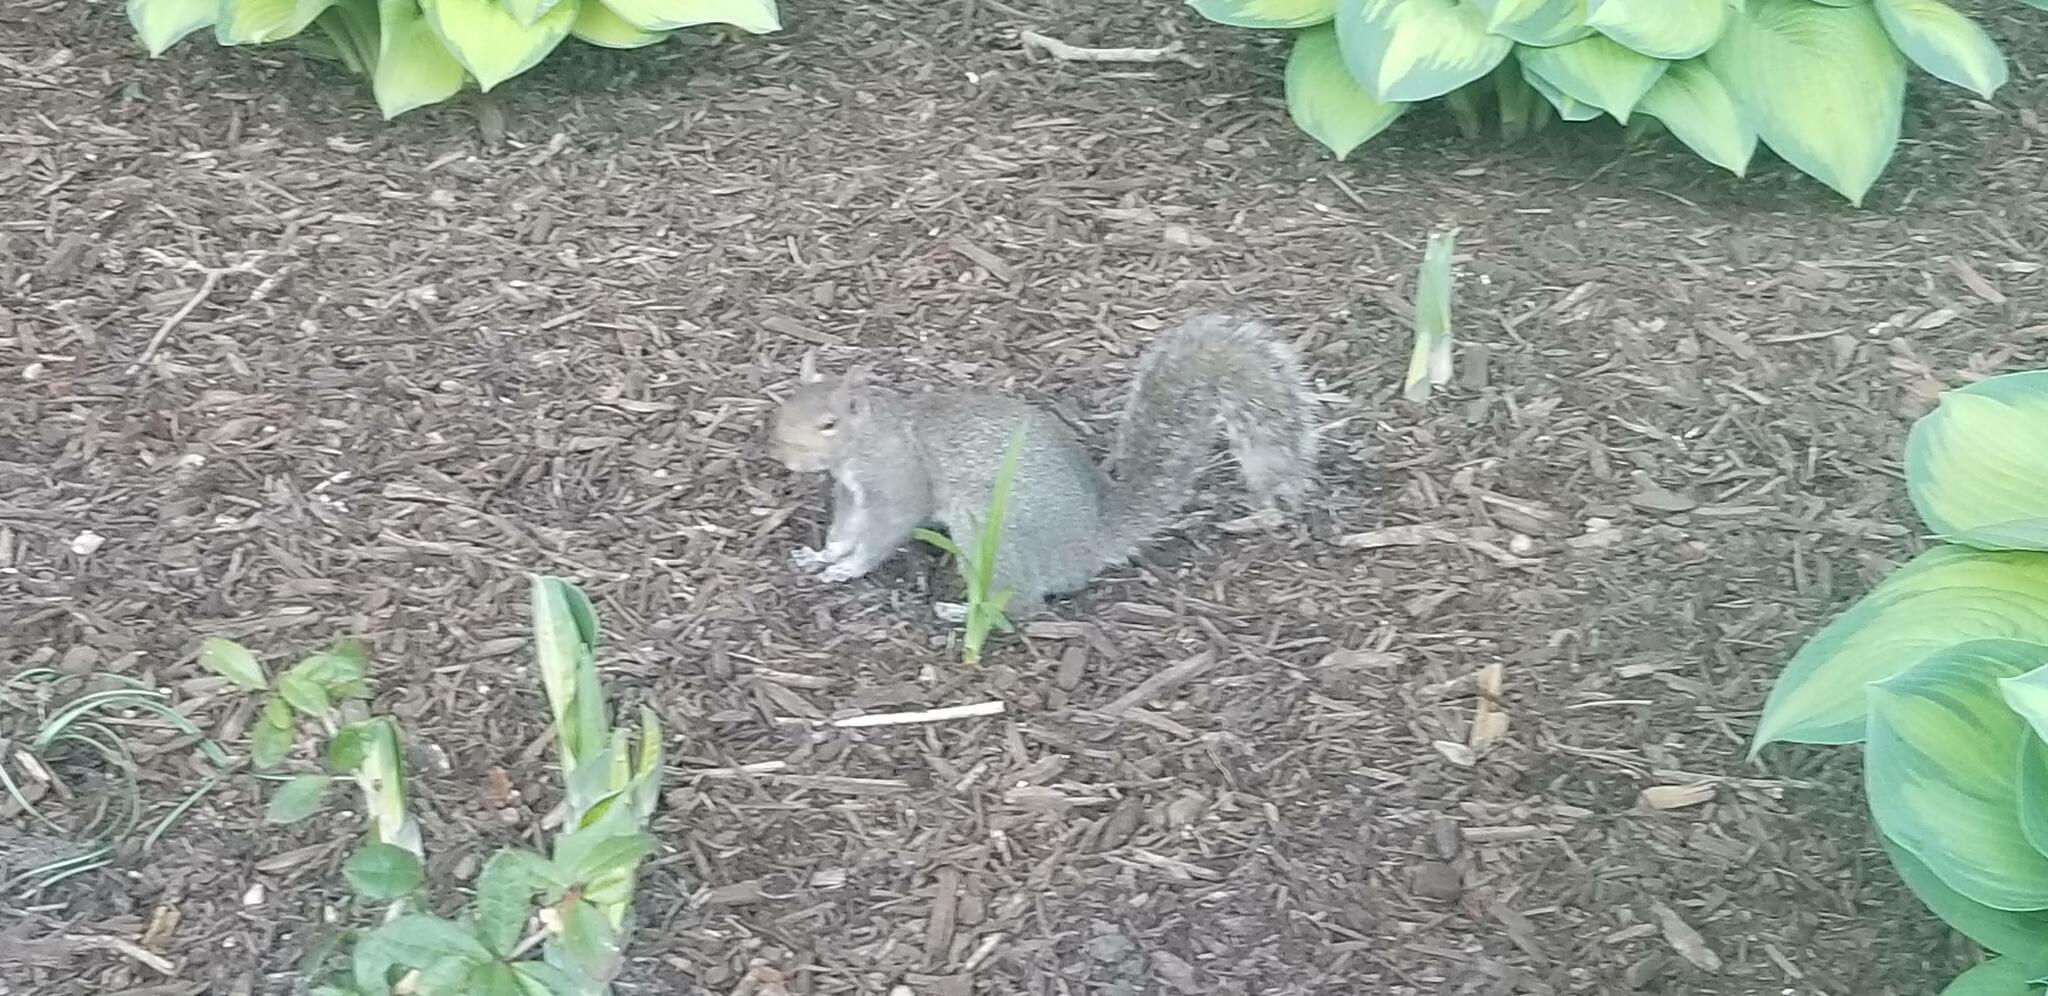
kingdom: Animalia
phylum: Chordata
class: Mammalia
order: Rodentia
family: Sciuridae
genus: Sciurus
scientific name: Sciurus carolinensis
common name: Eastern gray squirrel
